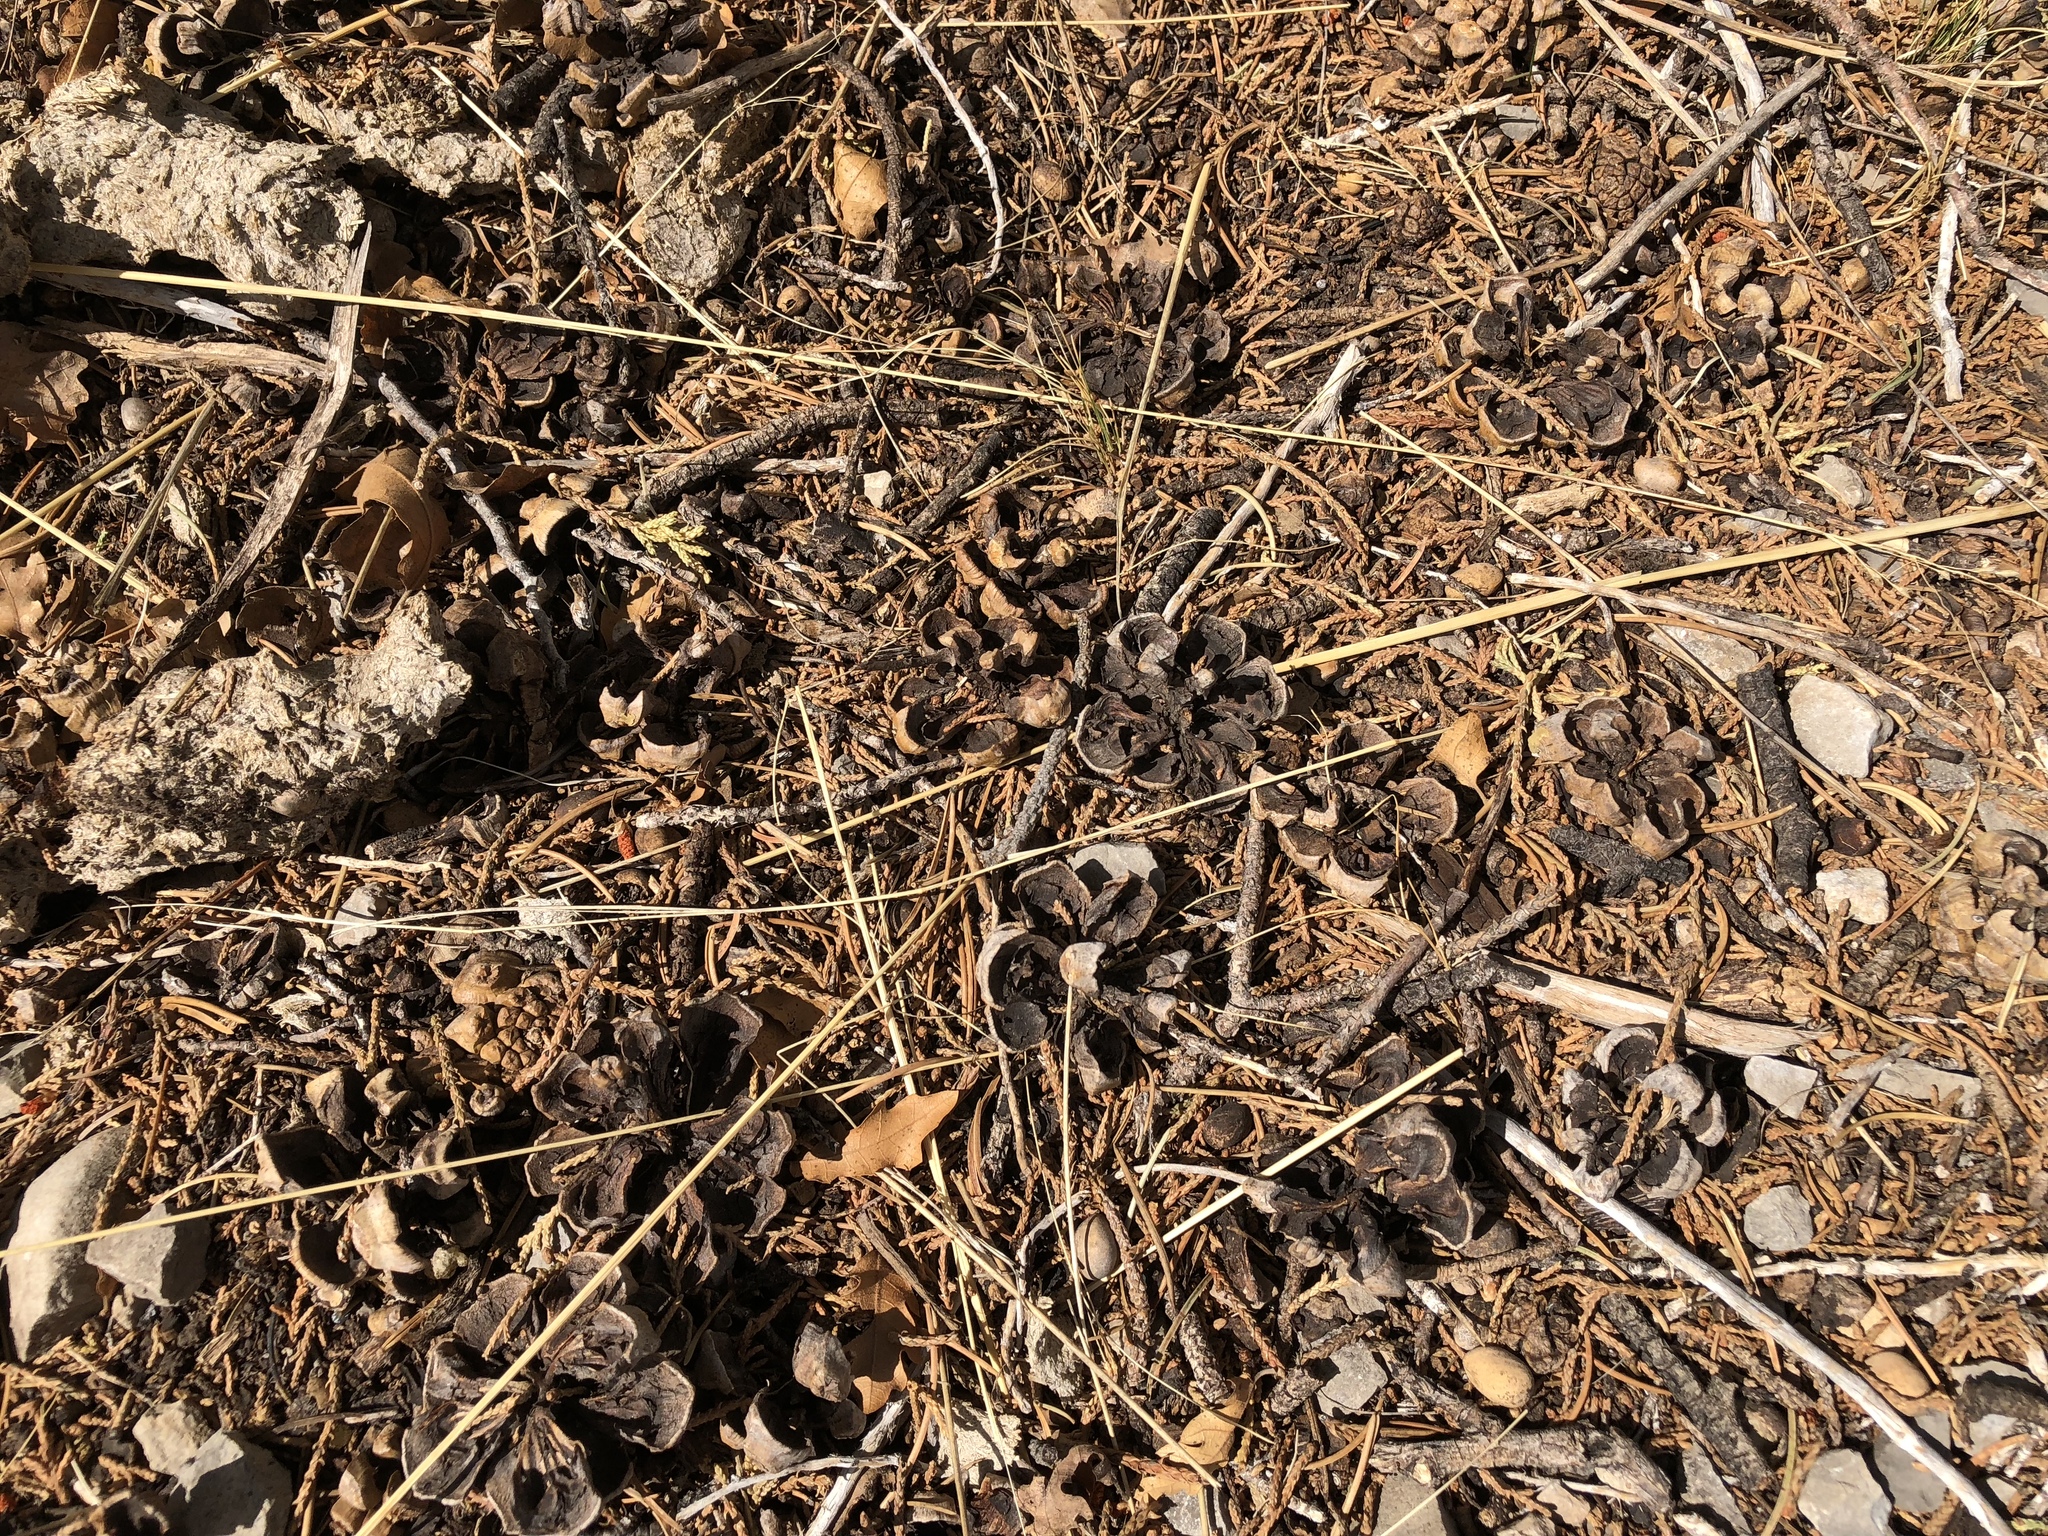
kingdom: Plantae
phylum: Tracheophyta
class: Pinopsida
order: Pinales
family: Pinaceae
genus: Pinus
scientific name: Pinus edulis
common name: Colorado pinyon
